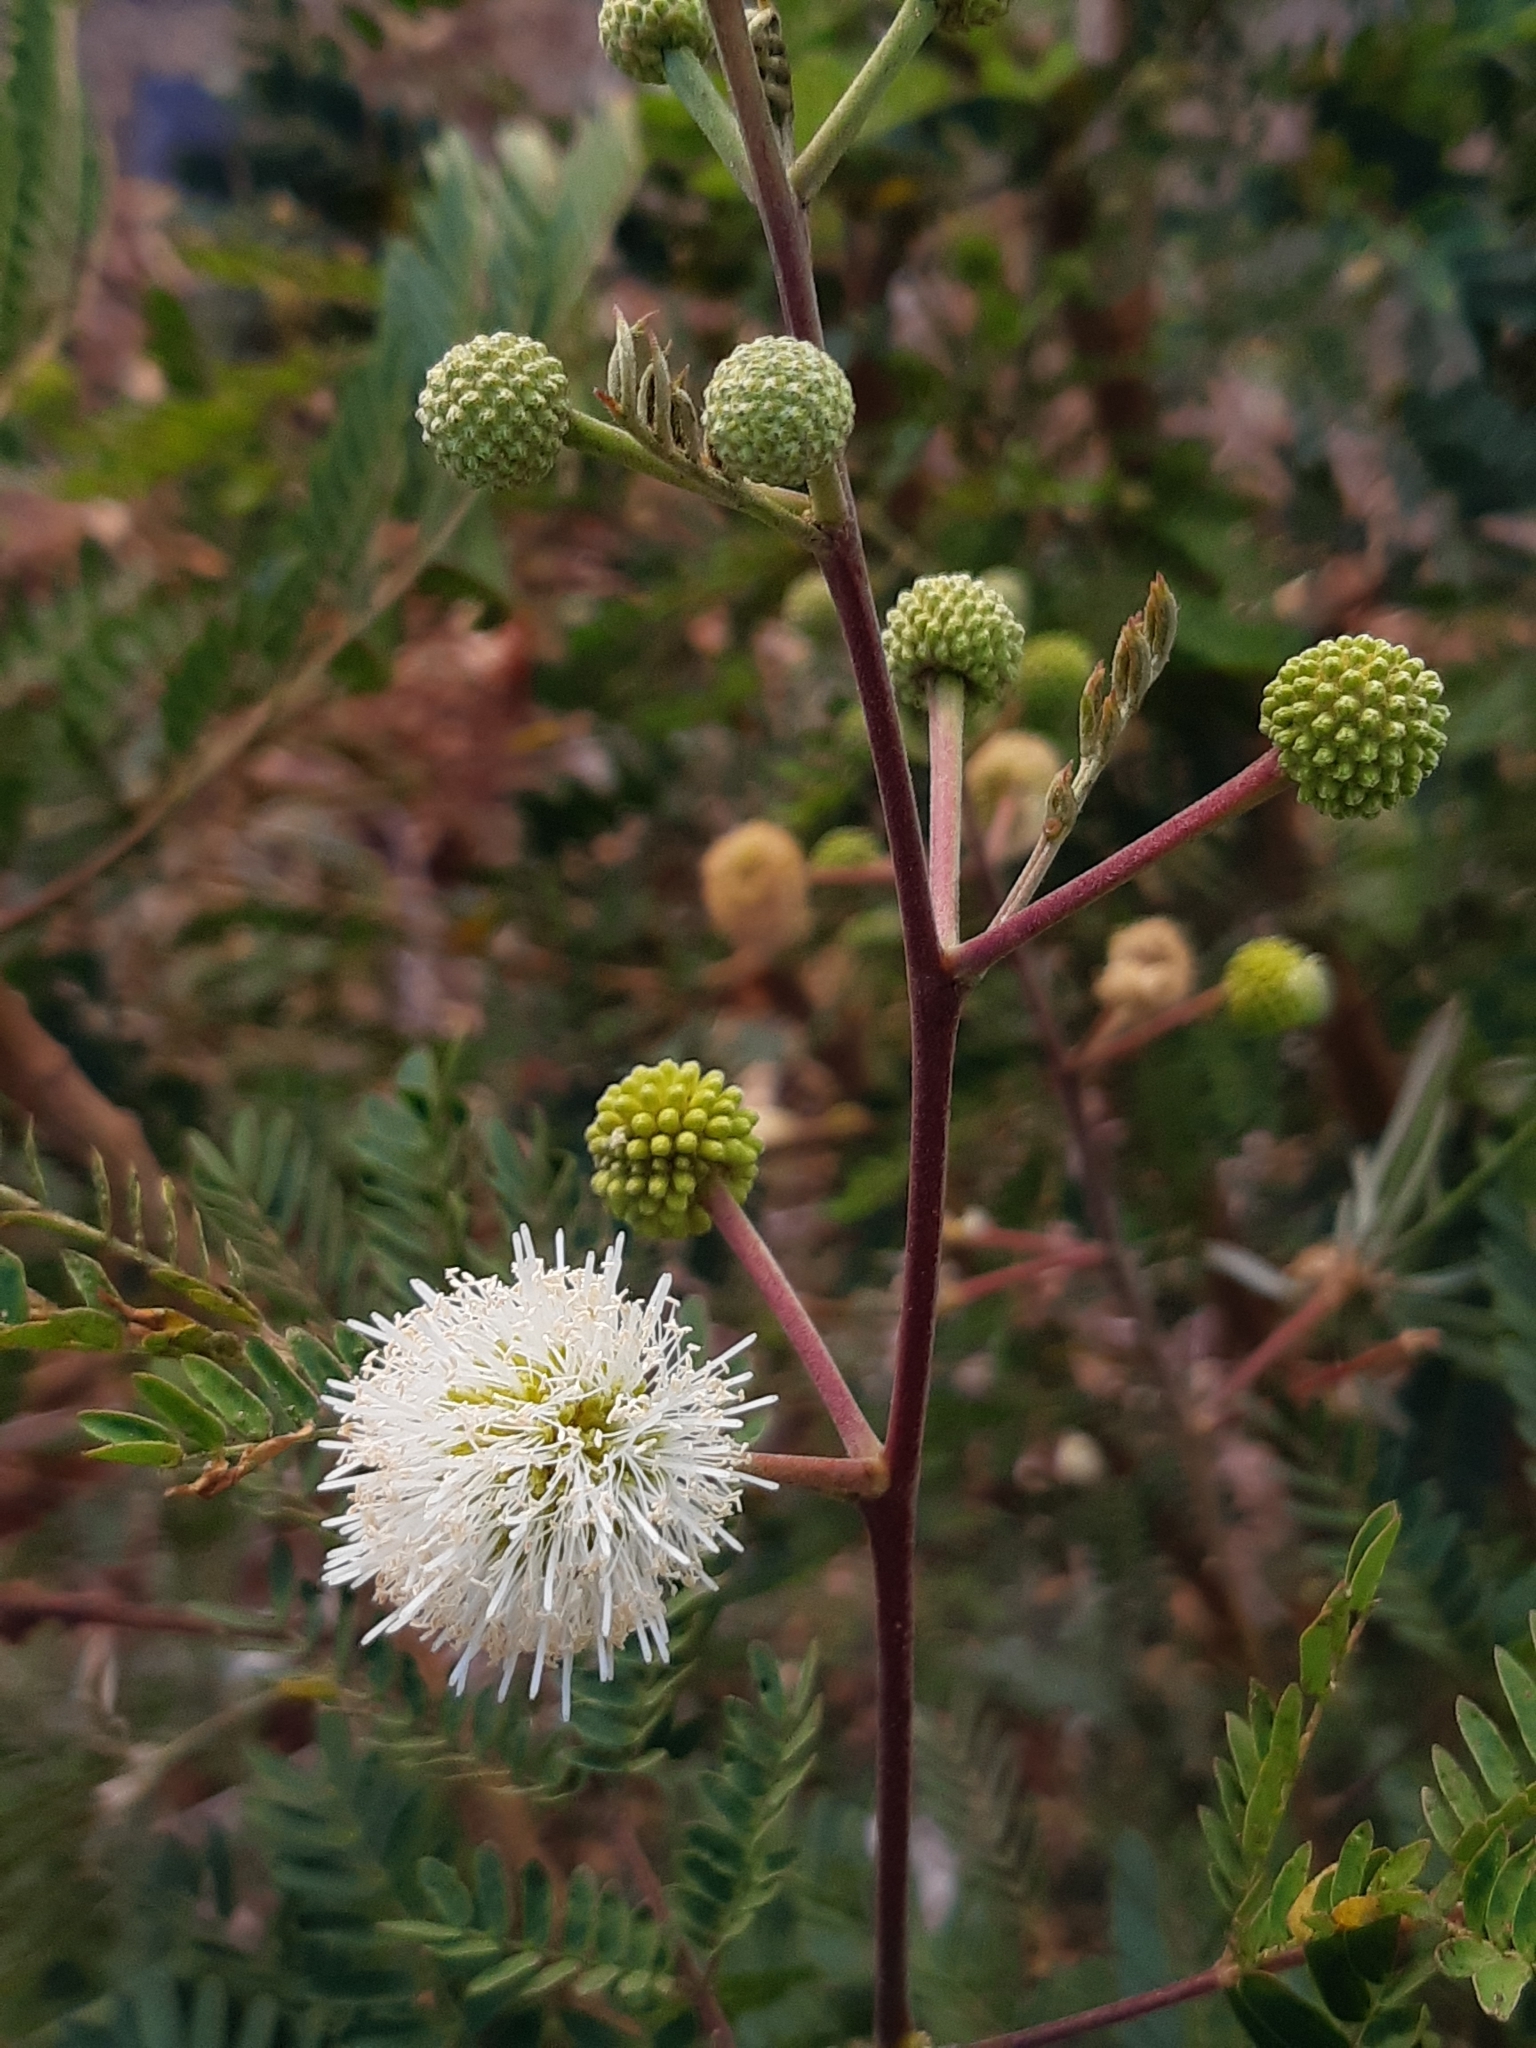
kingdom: Plantae
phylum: Tracheophyta
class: Magnoliopsida
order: Fabales
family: Fabaceae
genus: Leucaena
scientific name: Leucaena leucocephala
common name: White leadtree
